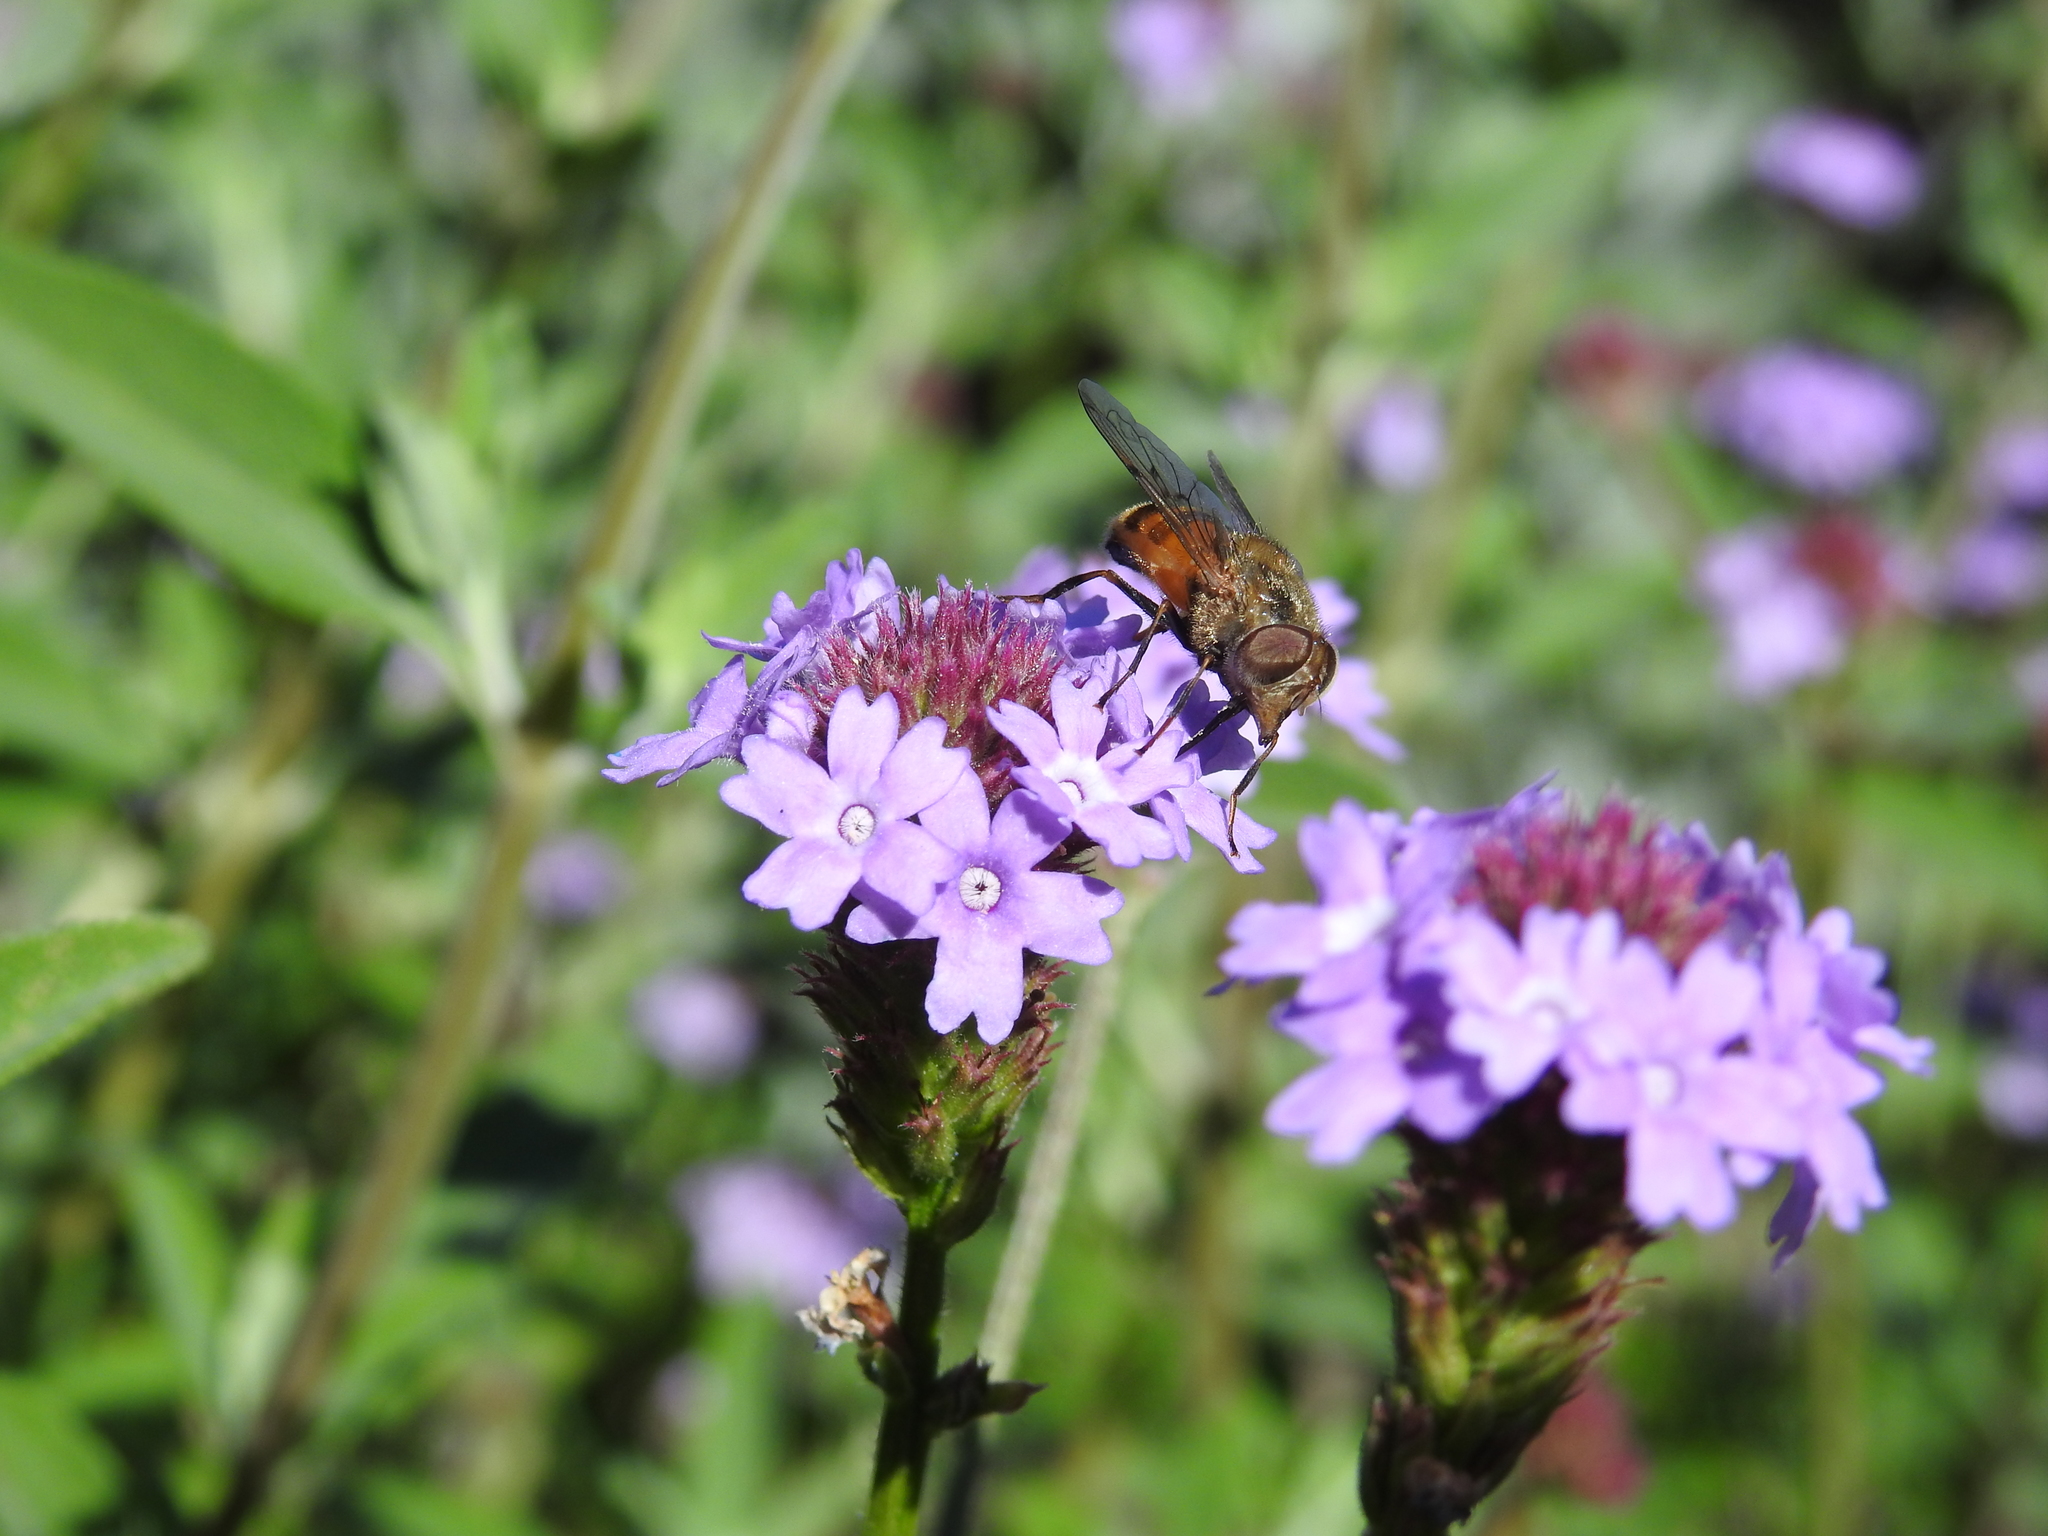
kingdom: Animalia
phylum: Arthropoda
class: Insecta
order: Diptera
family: Syrphidae
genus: Copestylum
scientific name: Copestylum haagii
